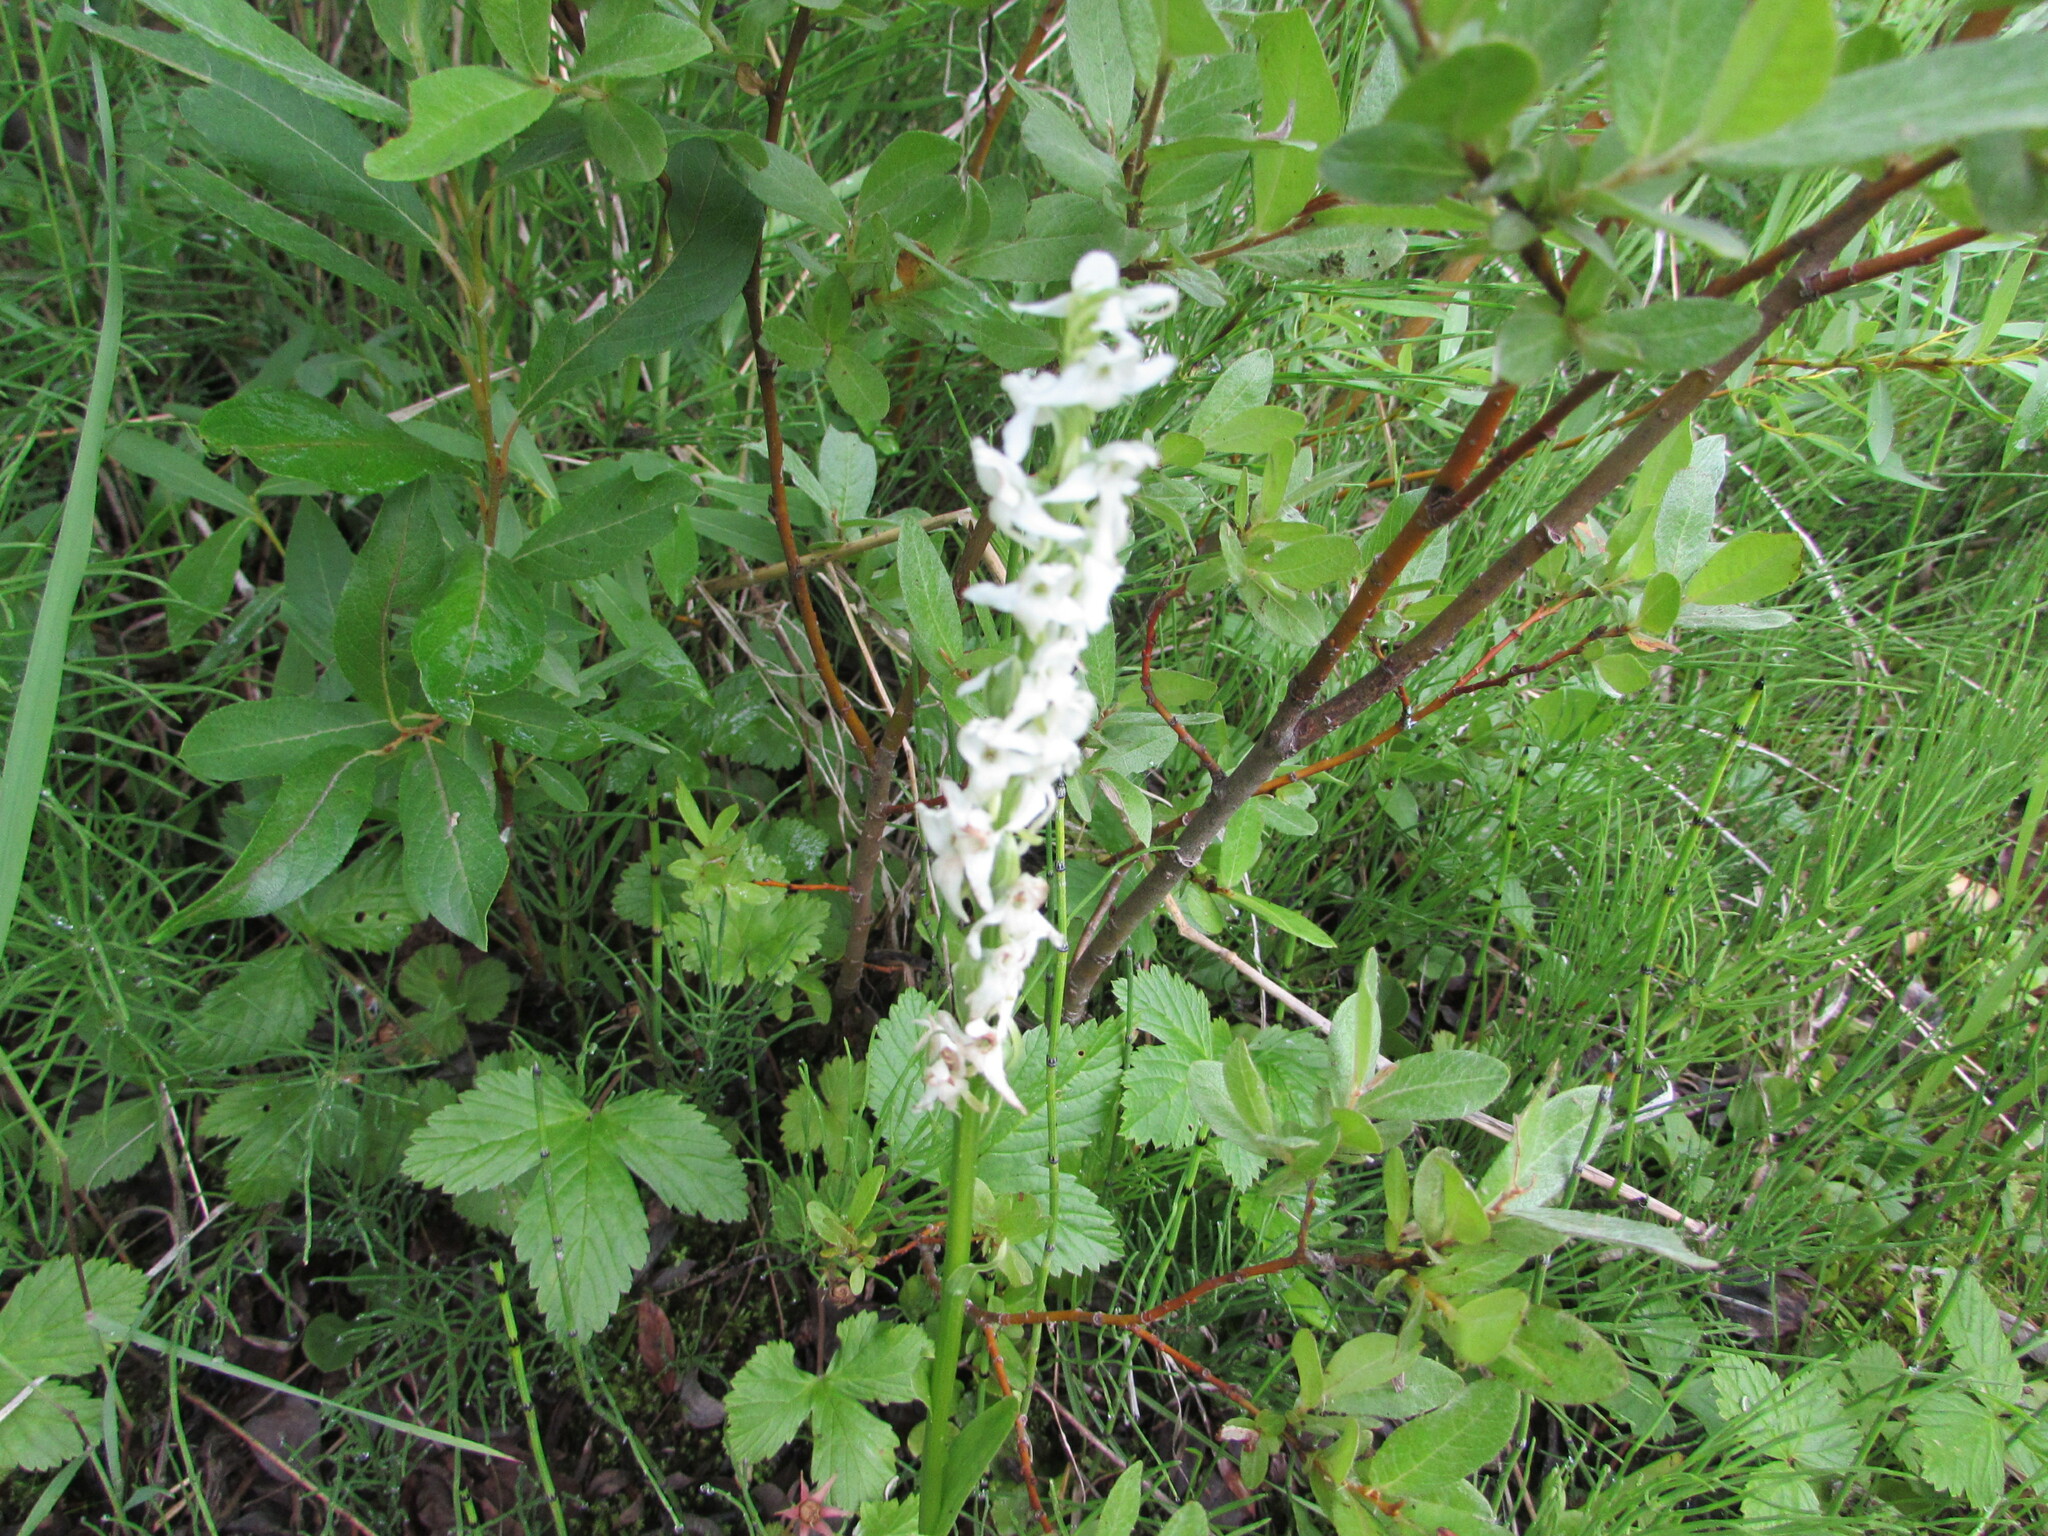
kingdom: Plantae
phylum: Tracheophyta
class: Liliopsida
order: Asparagales
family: Orchidaceae
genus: Platanthera
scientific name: Platanthera dilatata
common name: Bog candles
